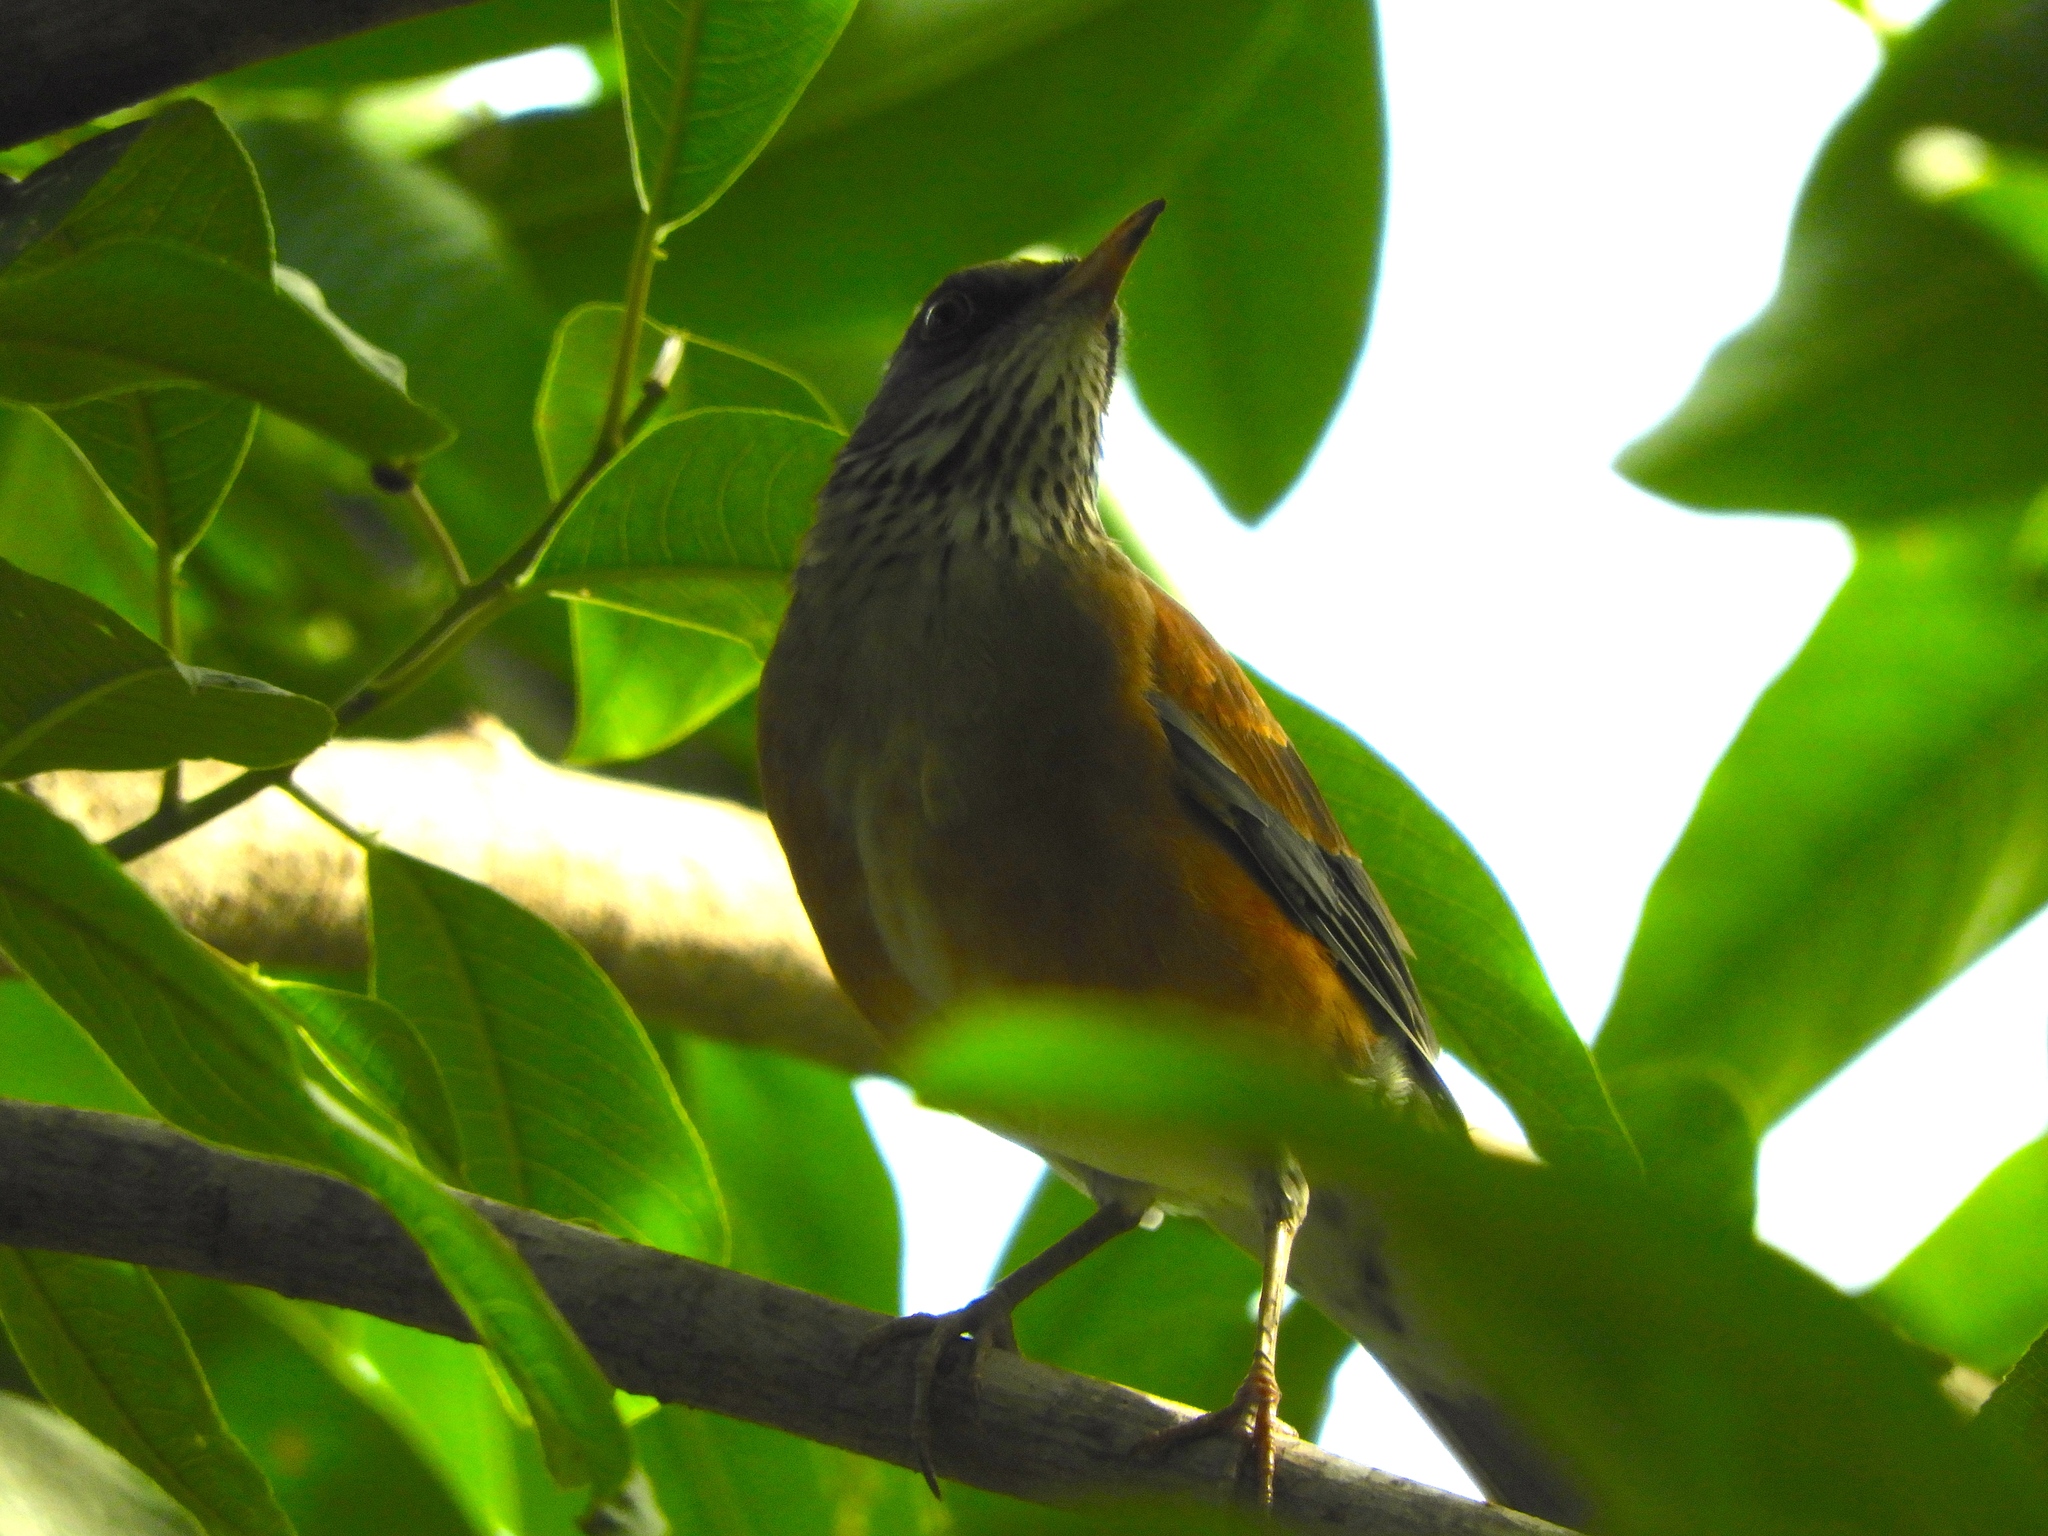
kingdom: Animalia
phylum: Chordata
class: Aves
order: Passeriformes
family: Turdidae
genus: Turdus
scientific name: Turdus rufopalliatus
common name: Rufous-backed robin
